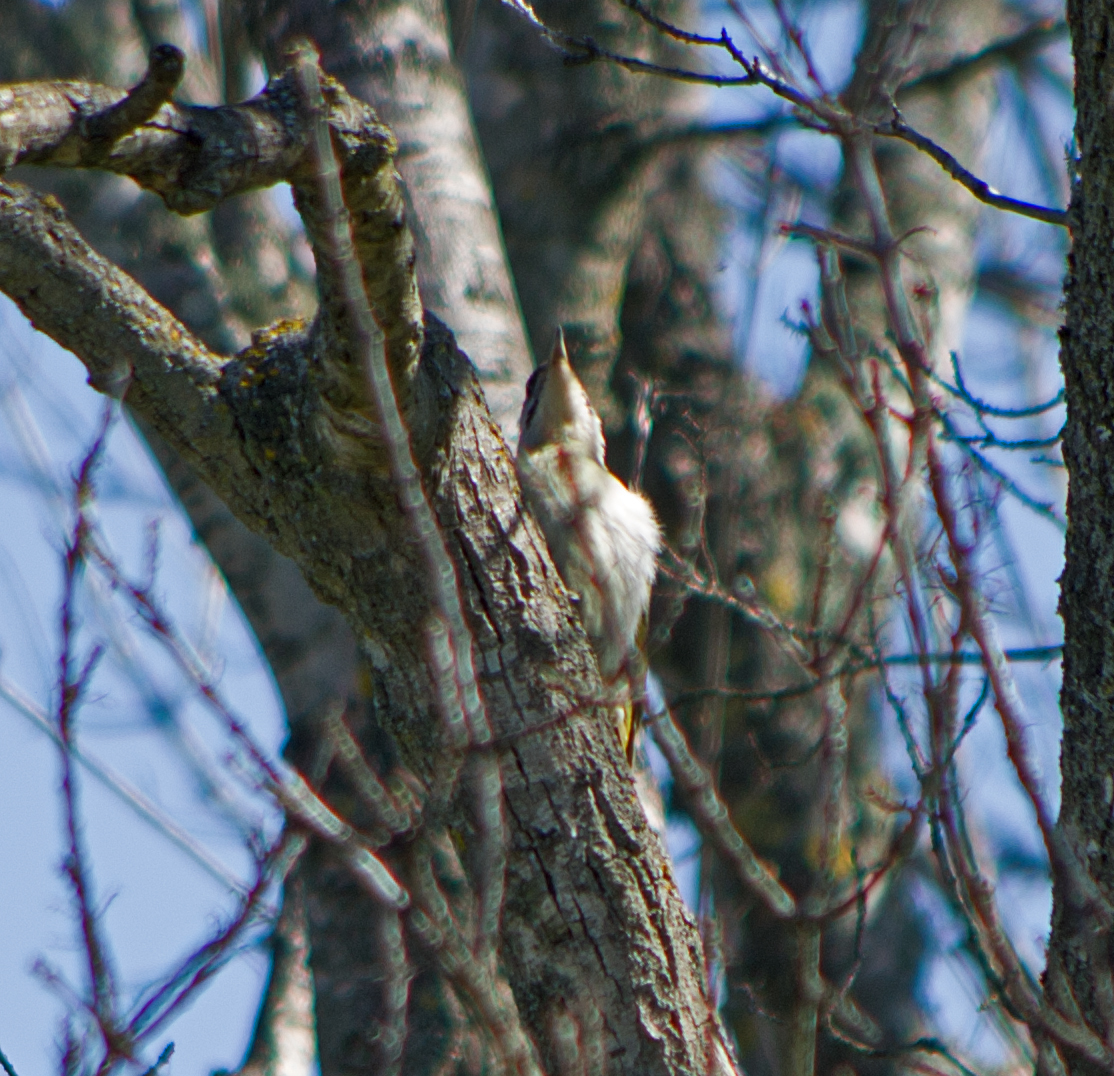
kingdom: Animalia
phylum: Chordata
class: Aves
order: Piciformes
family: Picidae
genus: Picus
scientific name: Picus canus
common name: Grey-headed woodpecker
